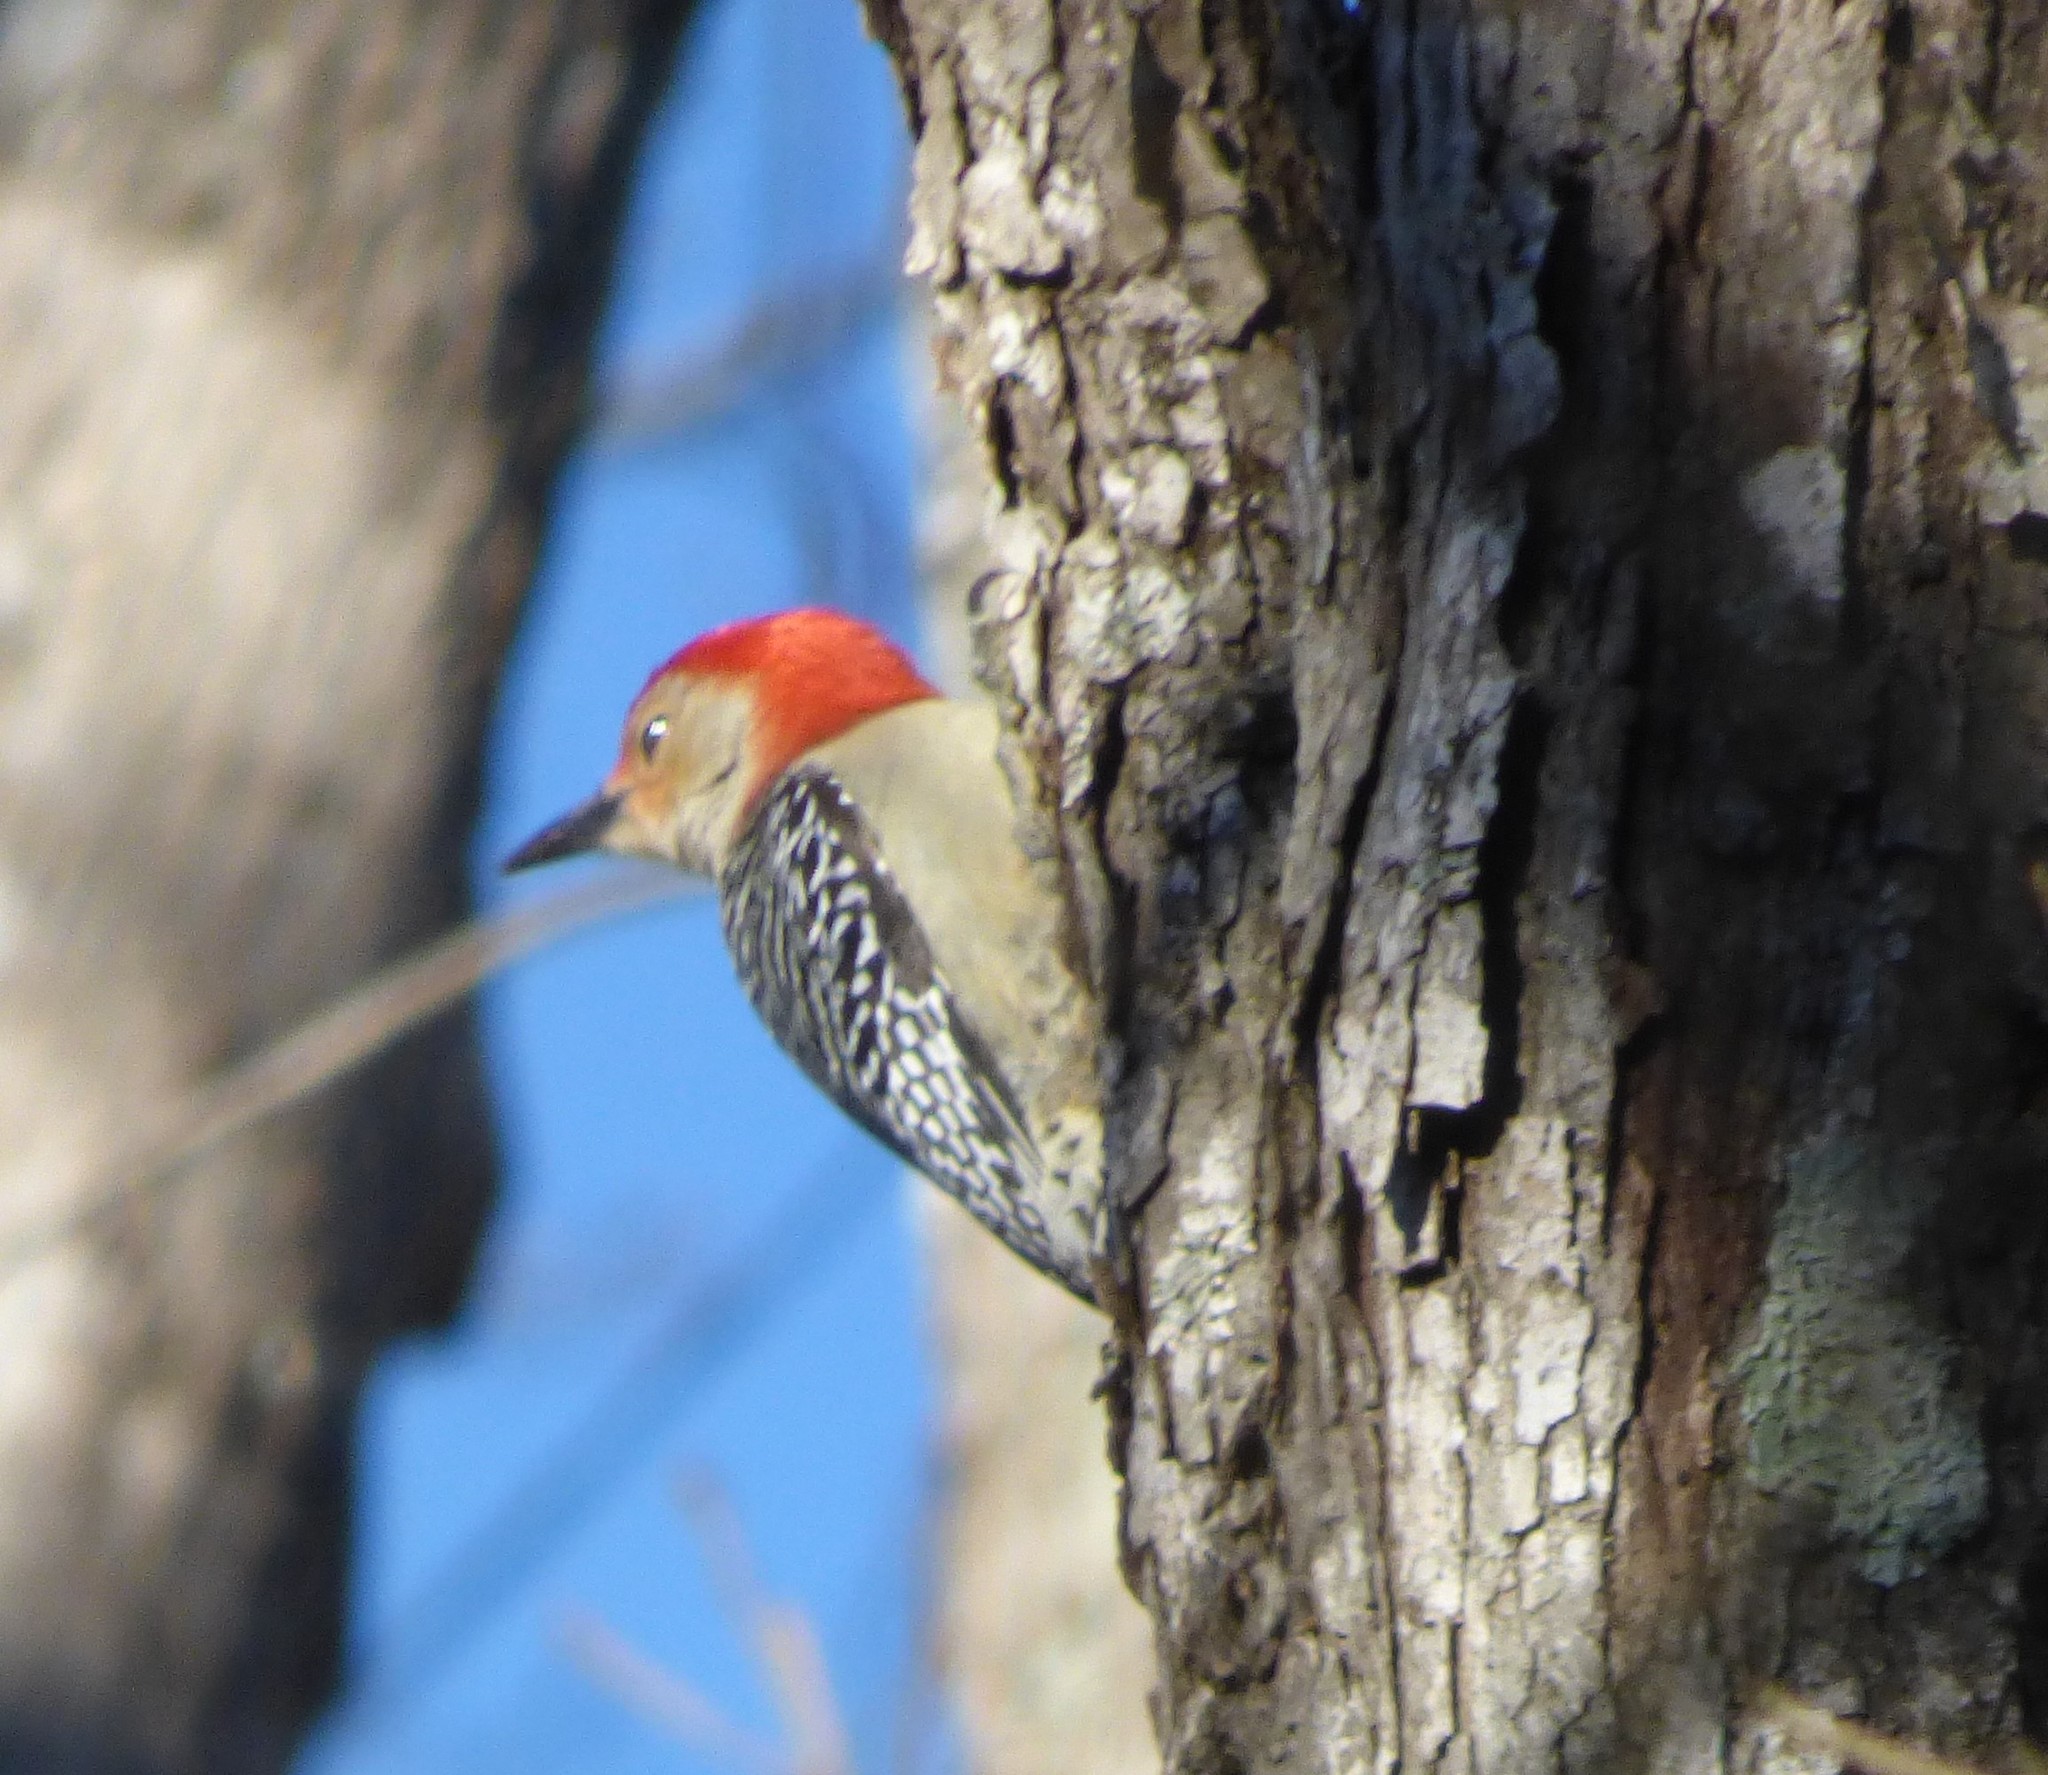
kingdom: Animalia
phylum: Chordata
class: Aves
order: Piciformes
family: Picidae
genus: Melanerpes
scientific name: Melanerpes carolinus
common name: Red-bellied woodpecker
